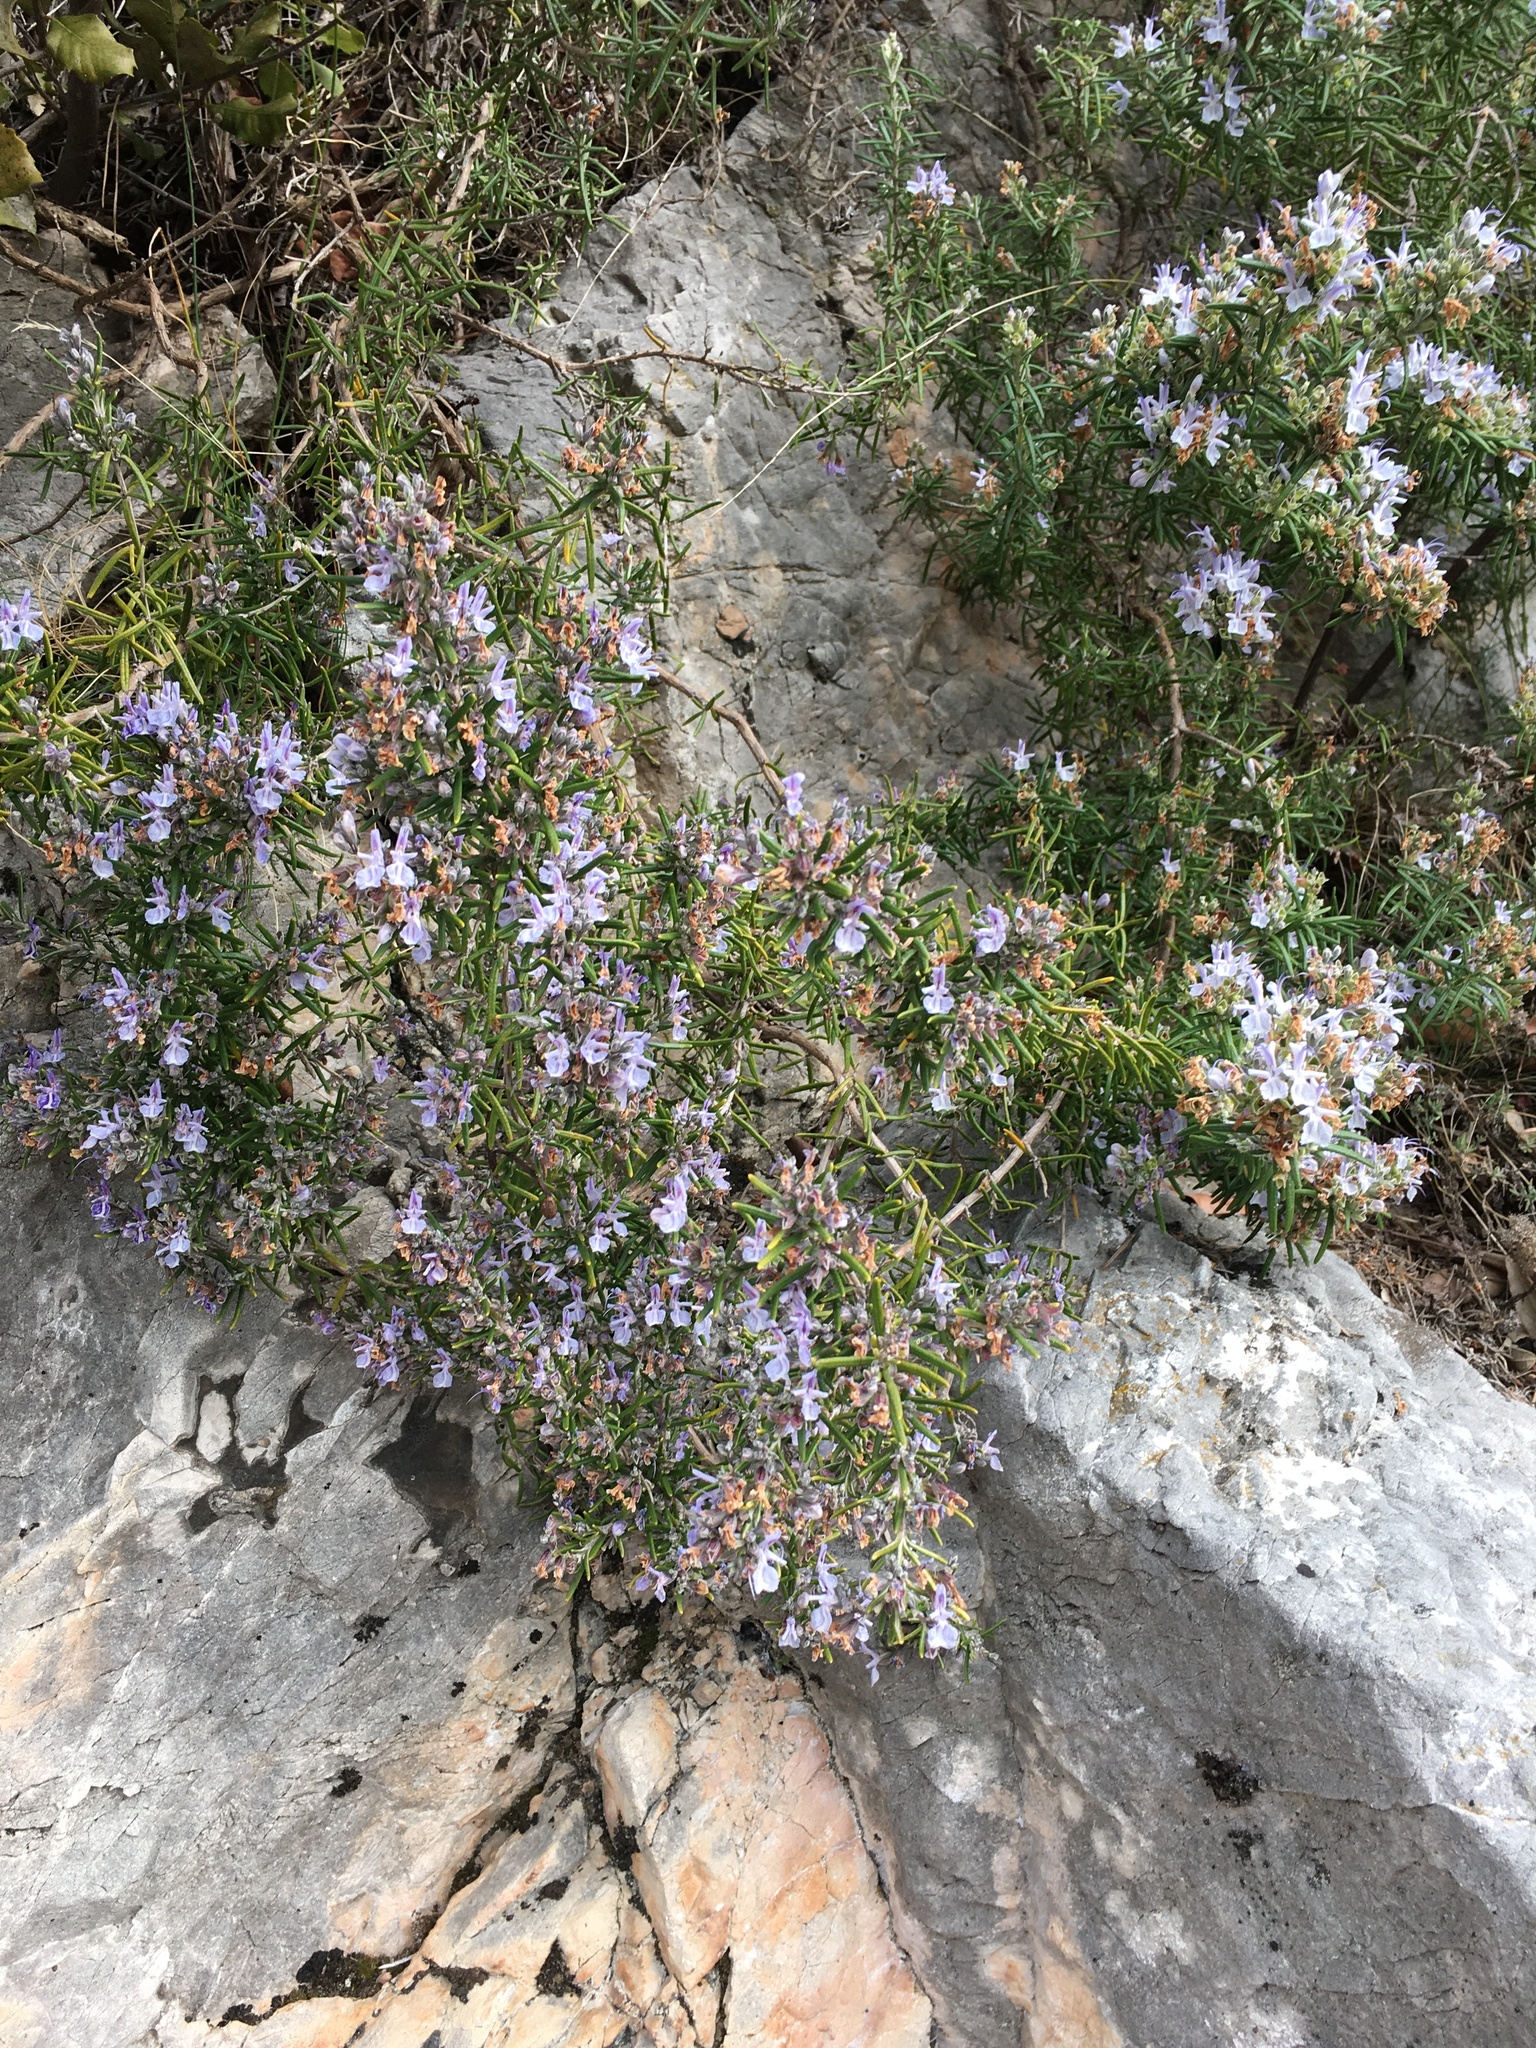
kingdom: Plantae
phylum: Tracheophyta
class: Magnoliopsida
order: Lamiales
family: Lamiaceae
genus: Salvia
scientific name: Salvia rosmarinus
